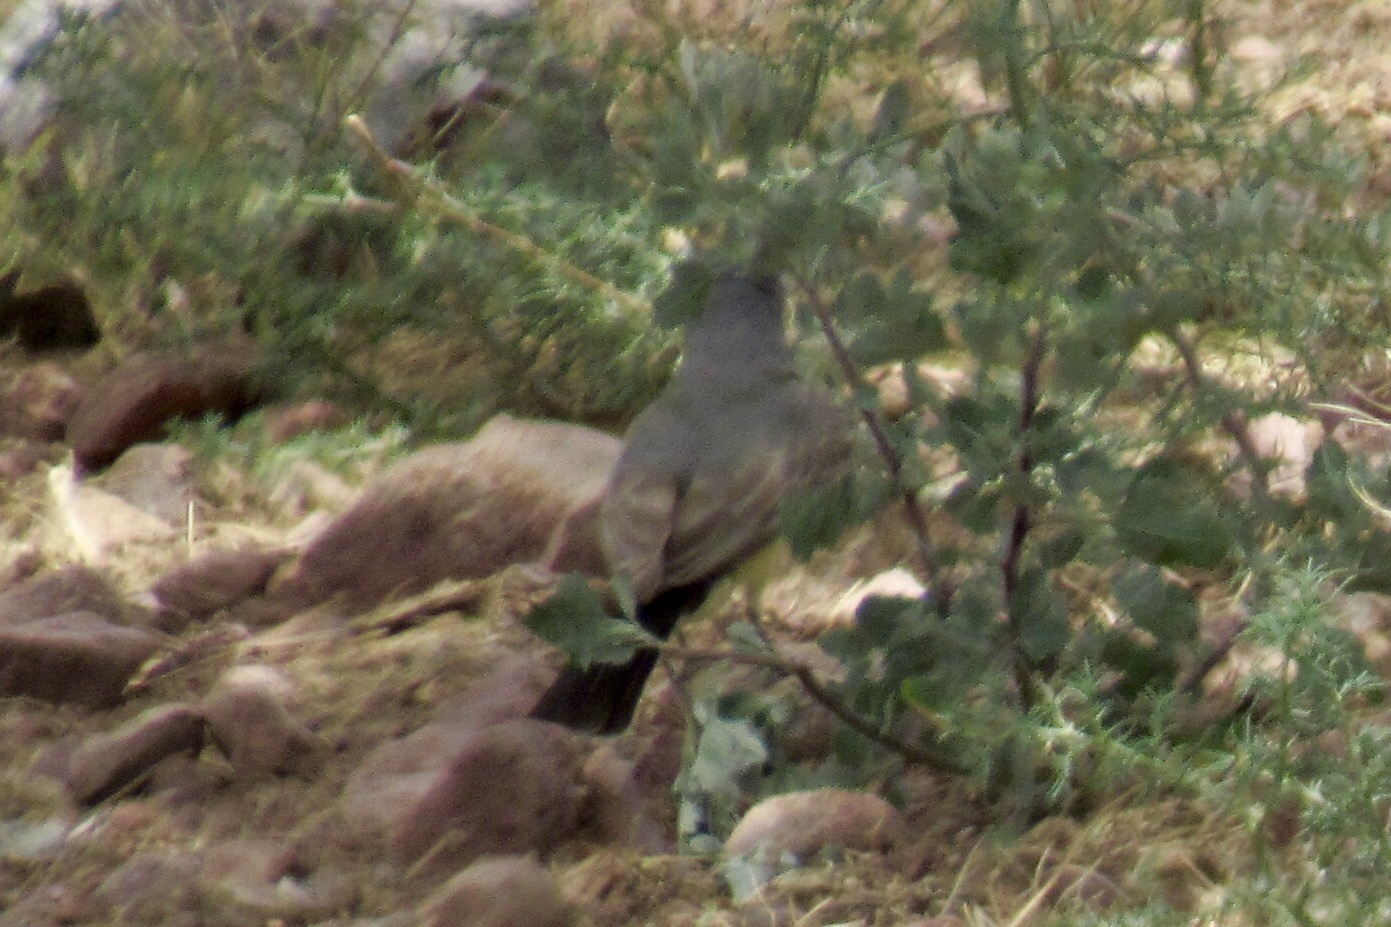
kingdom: Animalia
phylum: Chordata
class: Aves
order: Passeriformes
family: Tyrannidae
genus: Tyrannus
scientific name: Tyrannus vociferans
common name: Cassin's kingbird
